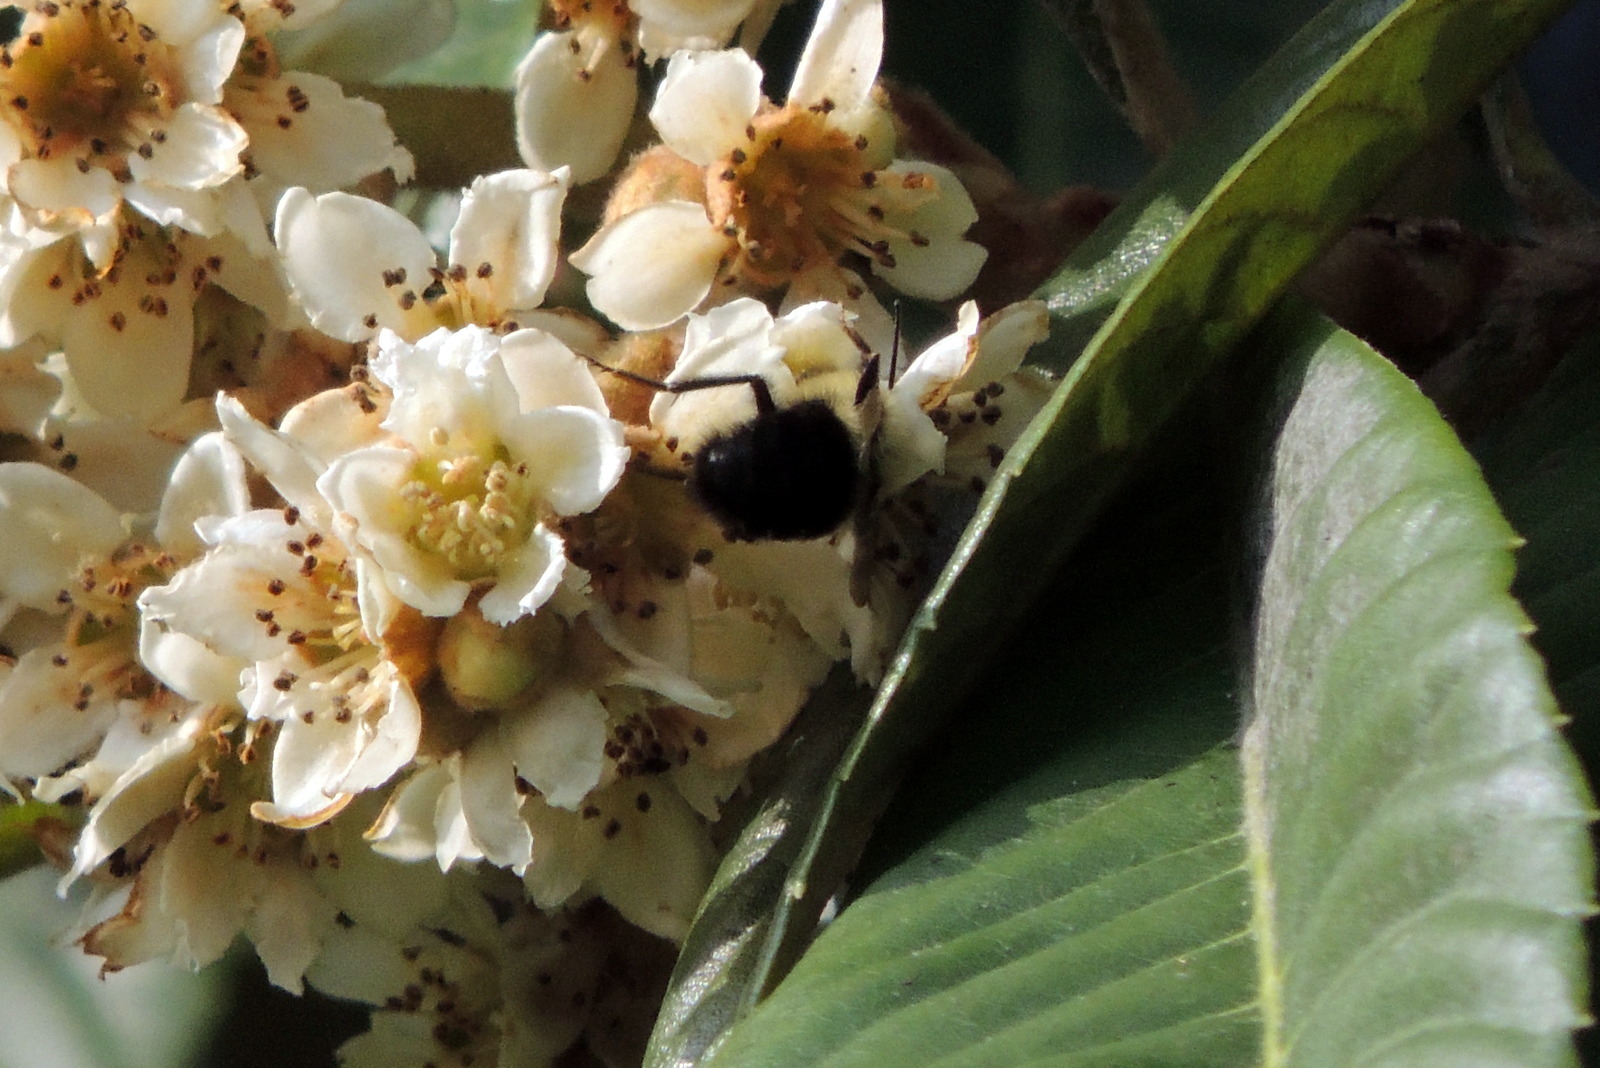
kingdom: Animalia
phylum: Arthropoda
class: Insecta
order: Hymenoptera
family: Apidae
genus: Bombus
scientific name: Bombus impatiens
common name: Common eastern bumble bee
